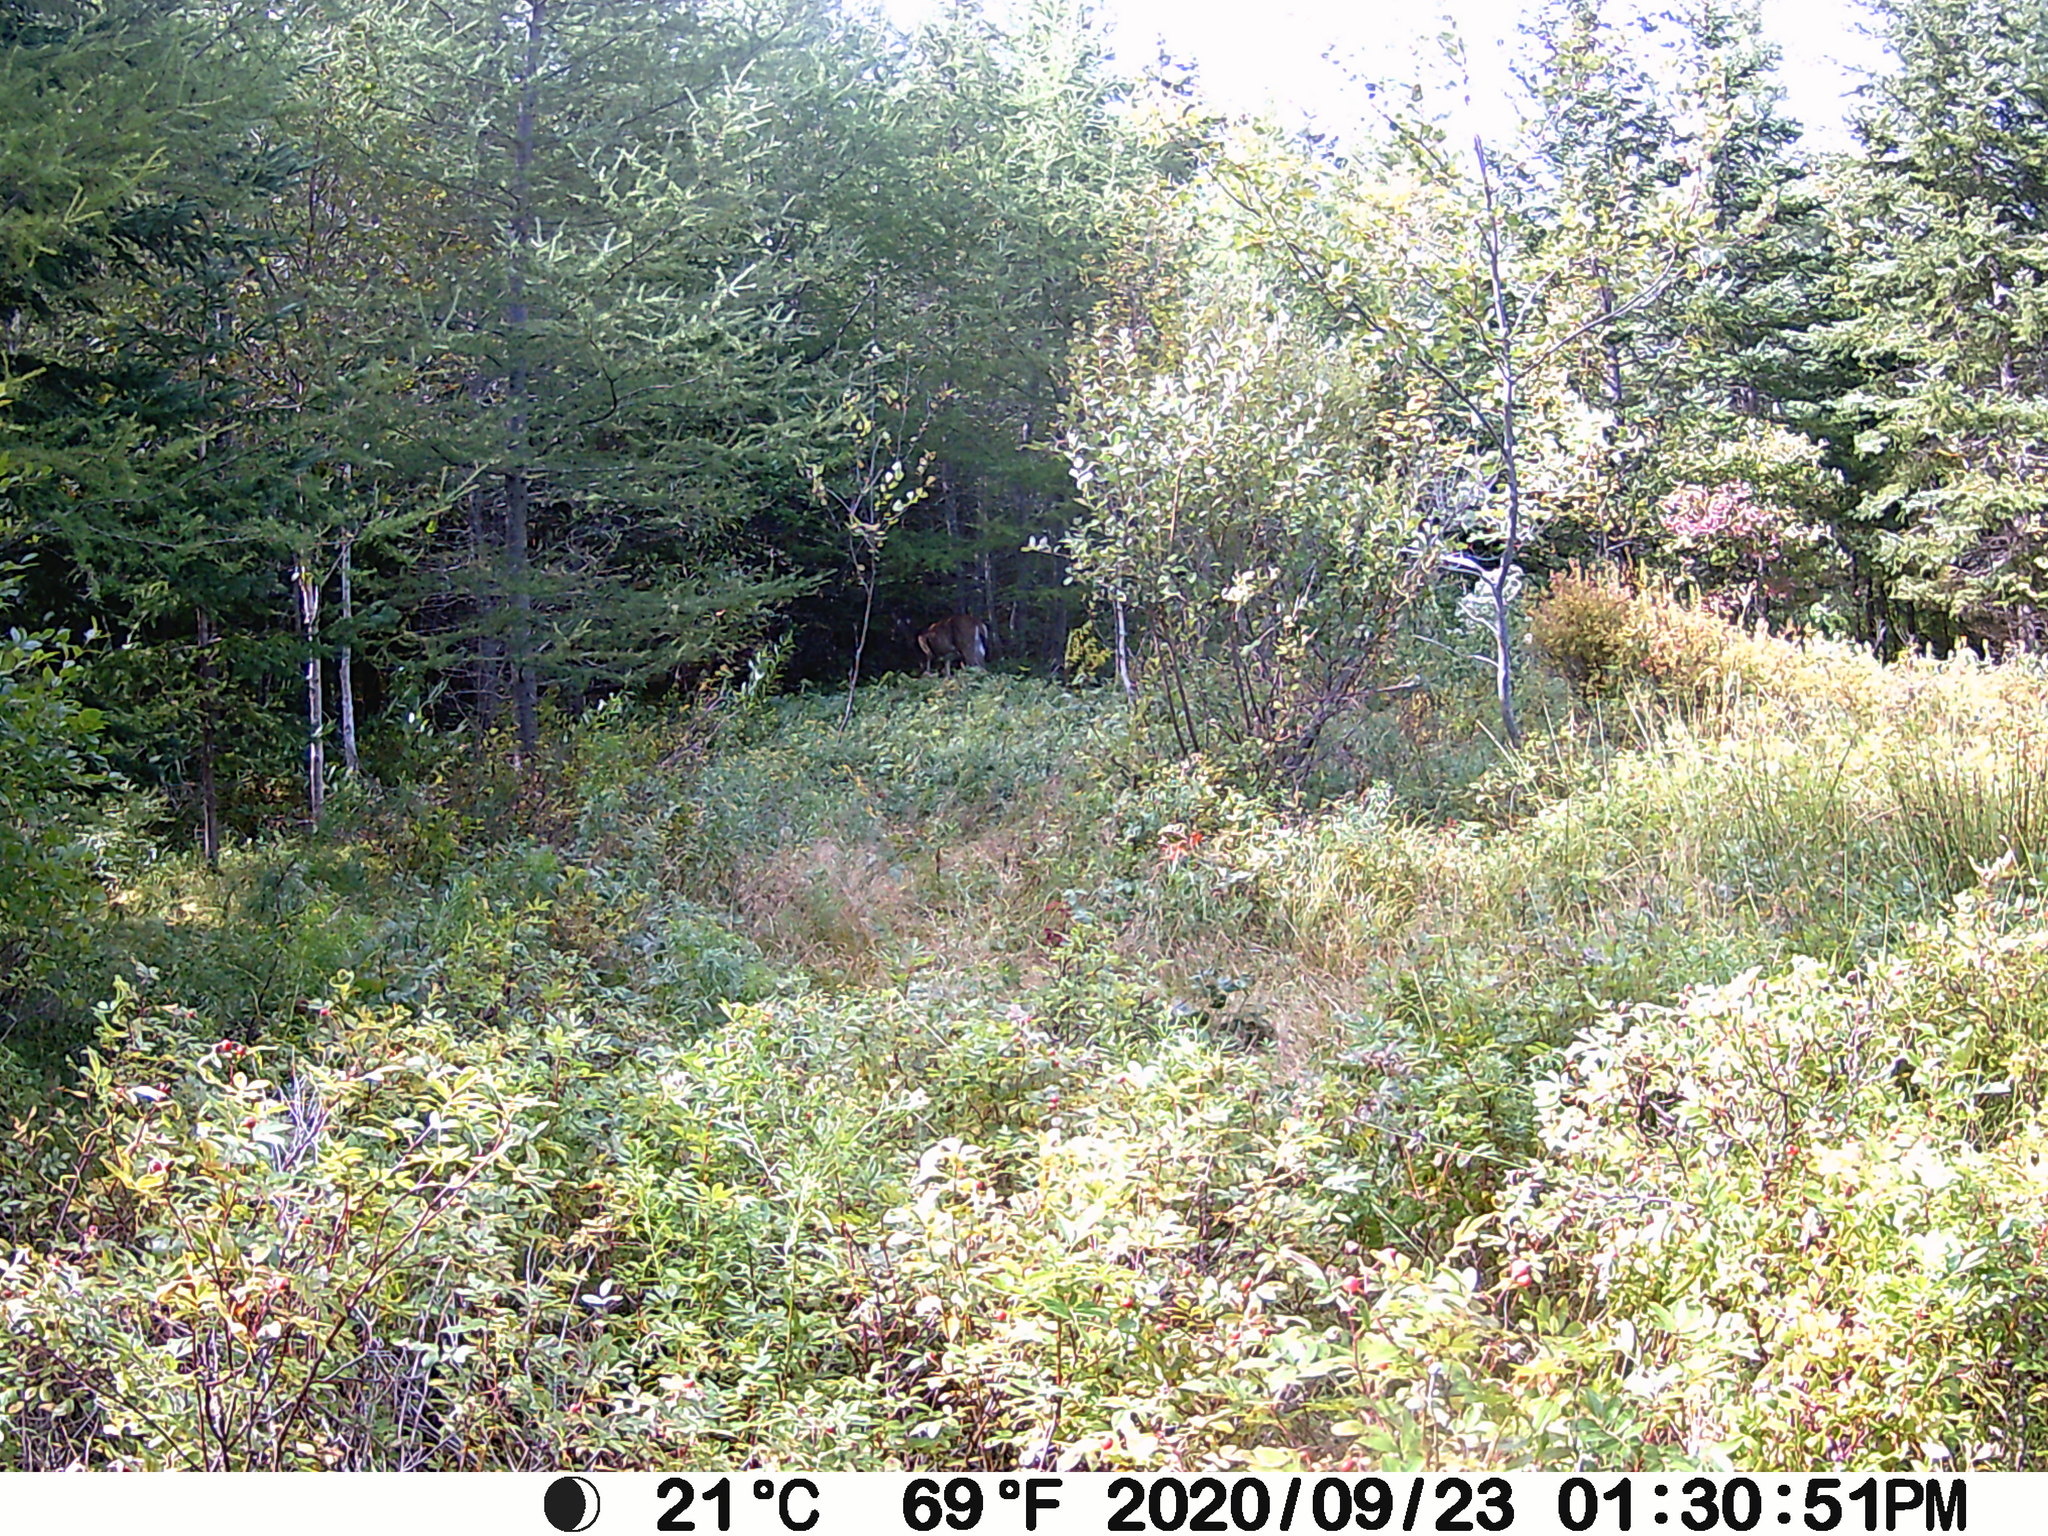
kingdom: Animalia
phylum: Chordata
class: Mammalia
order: Artiodactyla
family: Cervidae
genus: Odocoileus
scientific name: Odocoileus virginianus
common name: White-tailed deer
